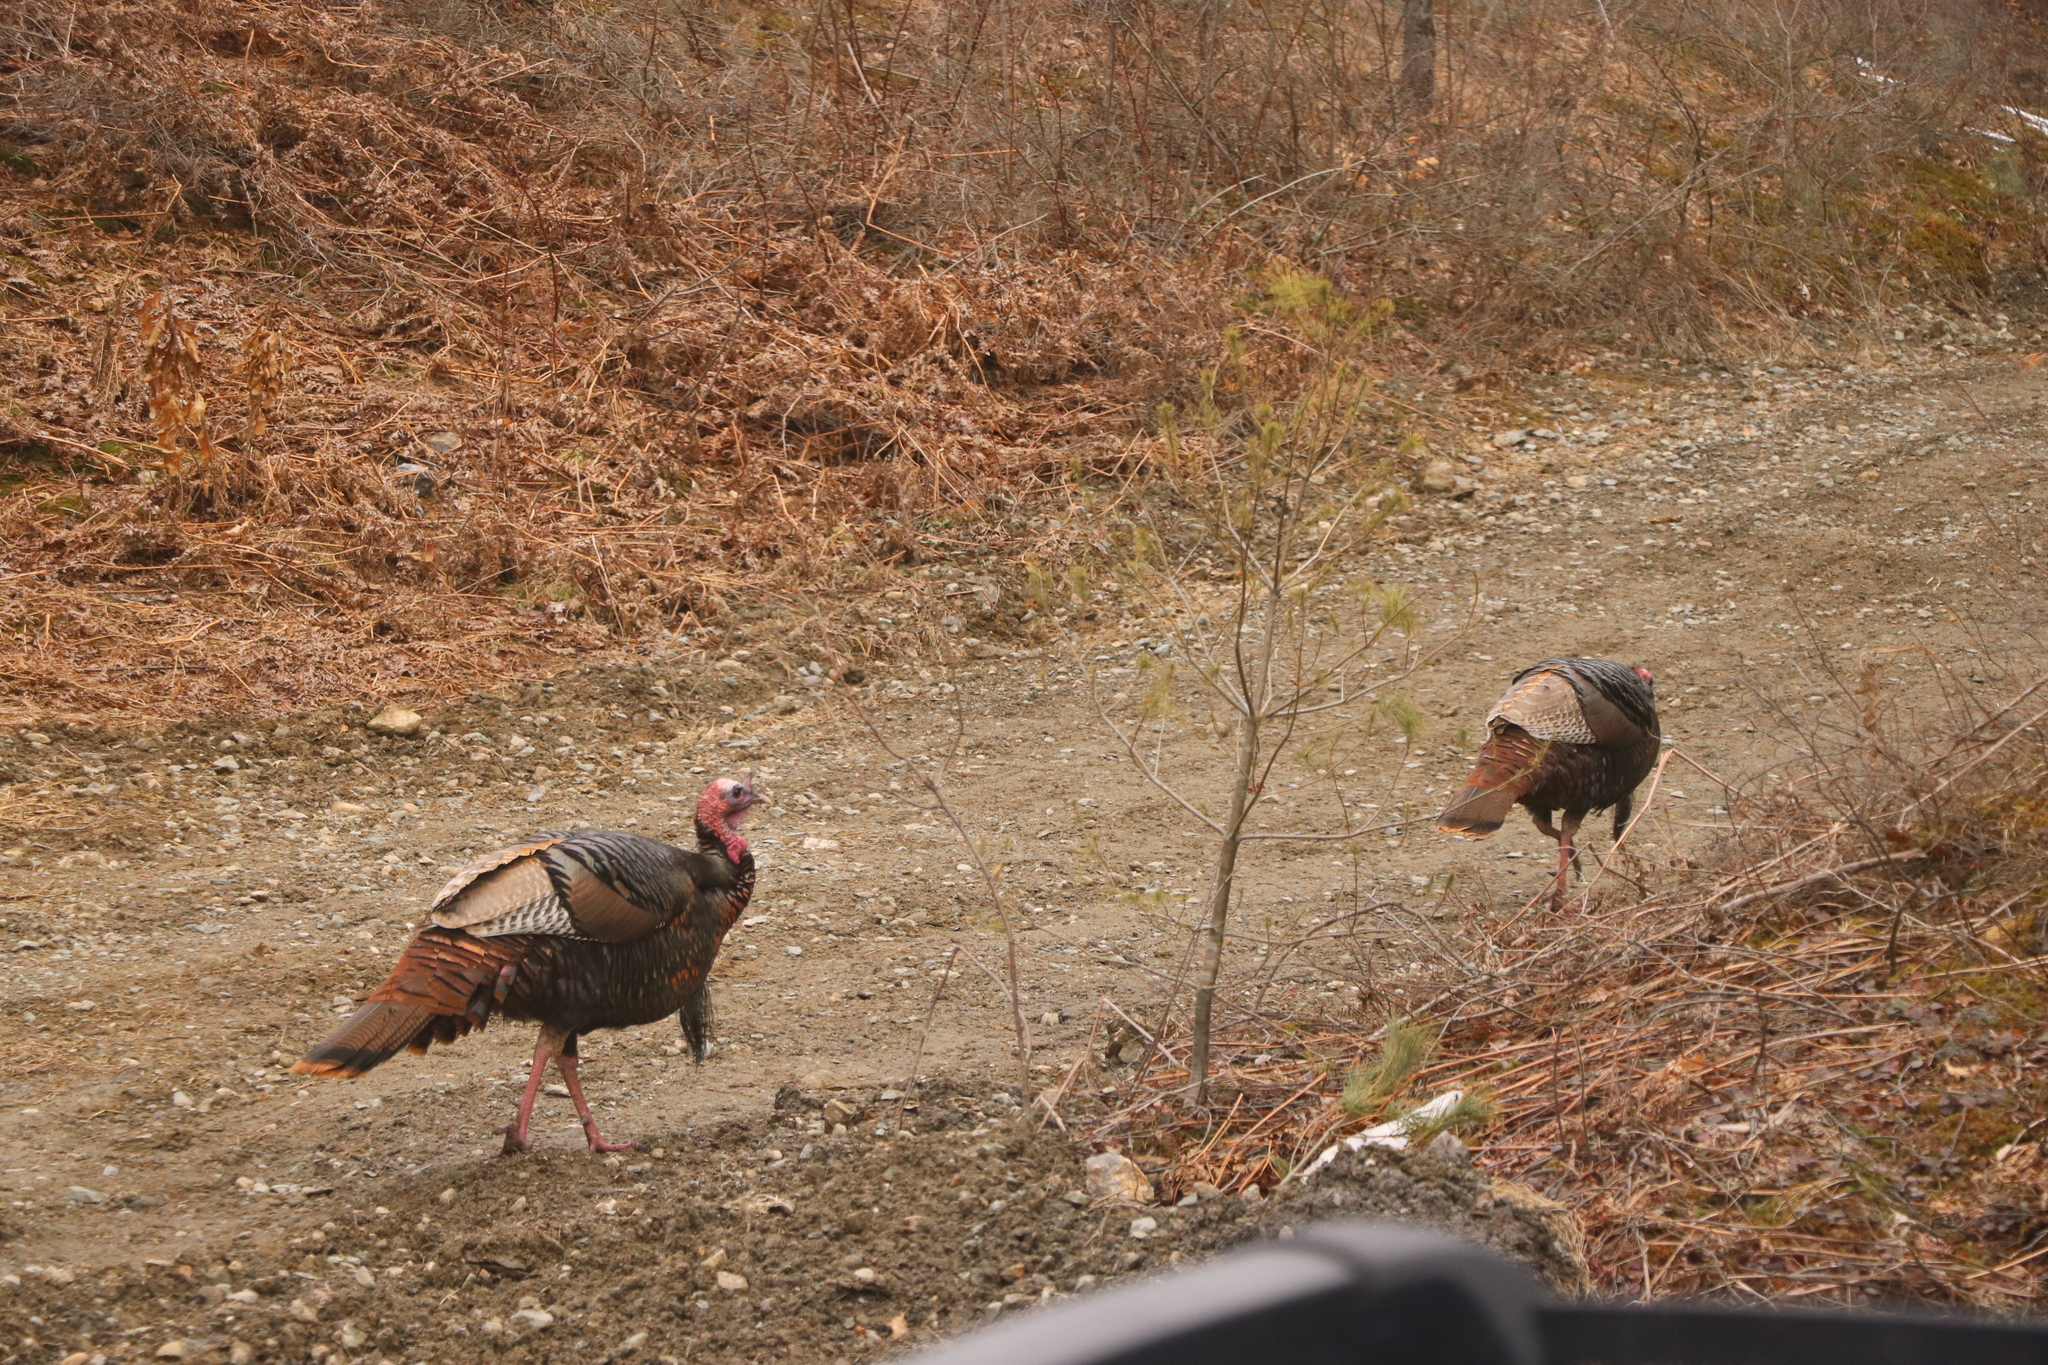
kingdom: Animalia
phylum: Chordata
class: Aves
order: Galliformes
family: Phasianidae
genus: Meleagris
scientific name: Meleagris gallopavo
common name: Wild turkey
